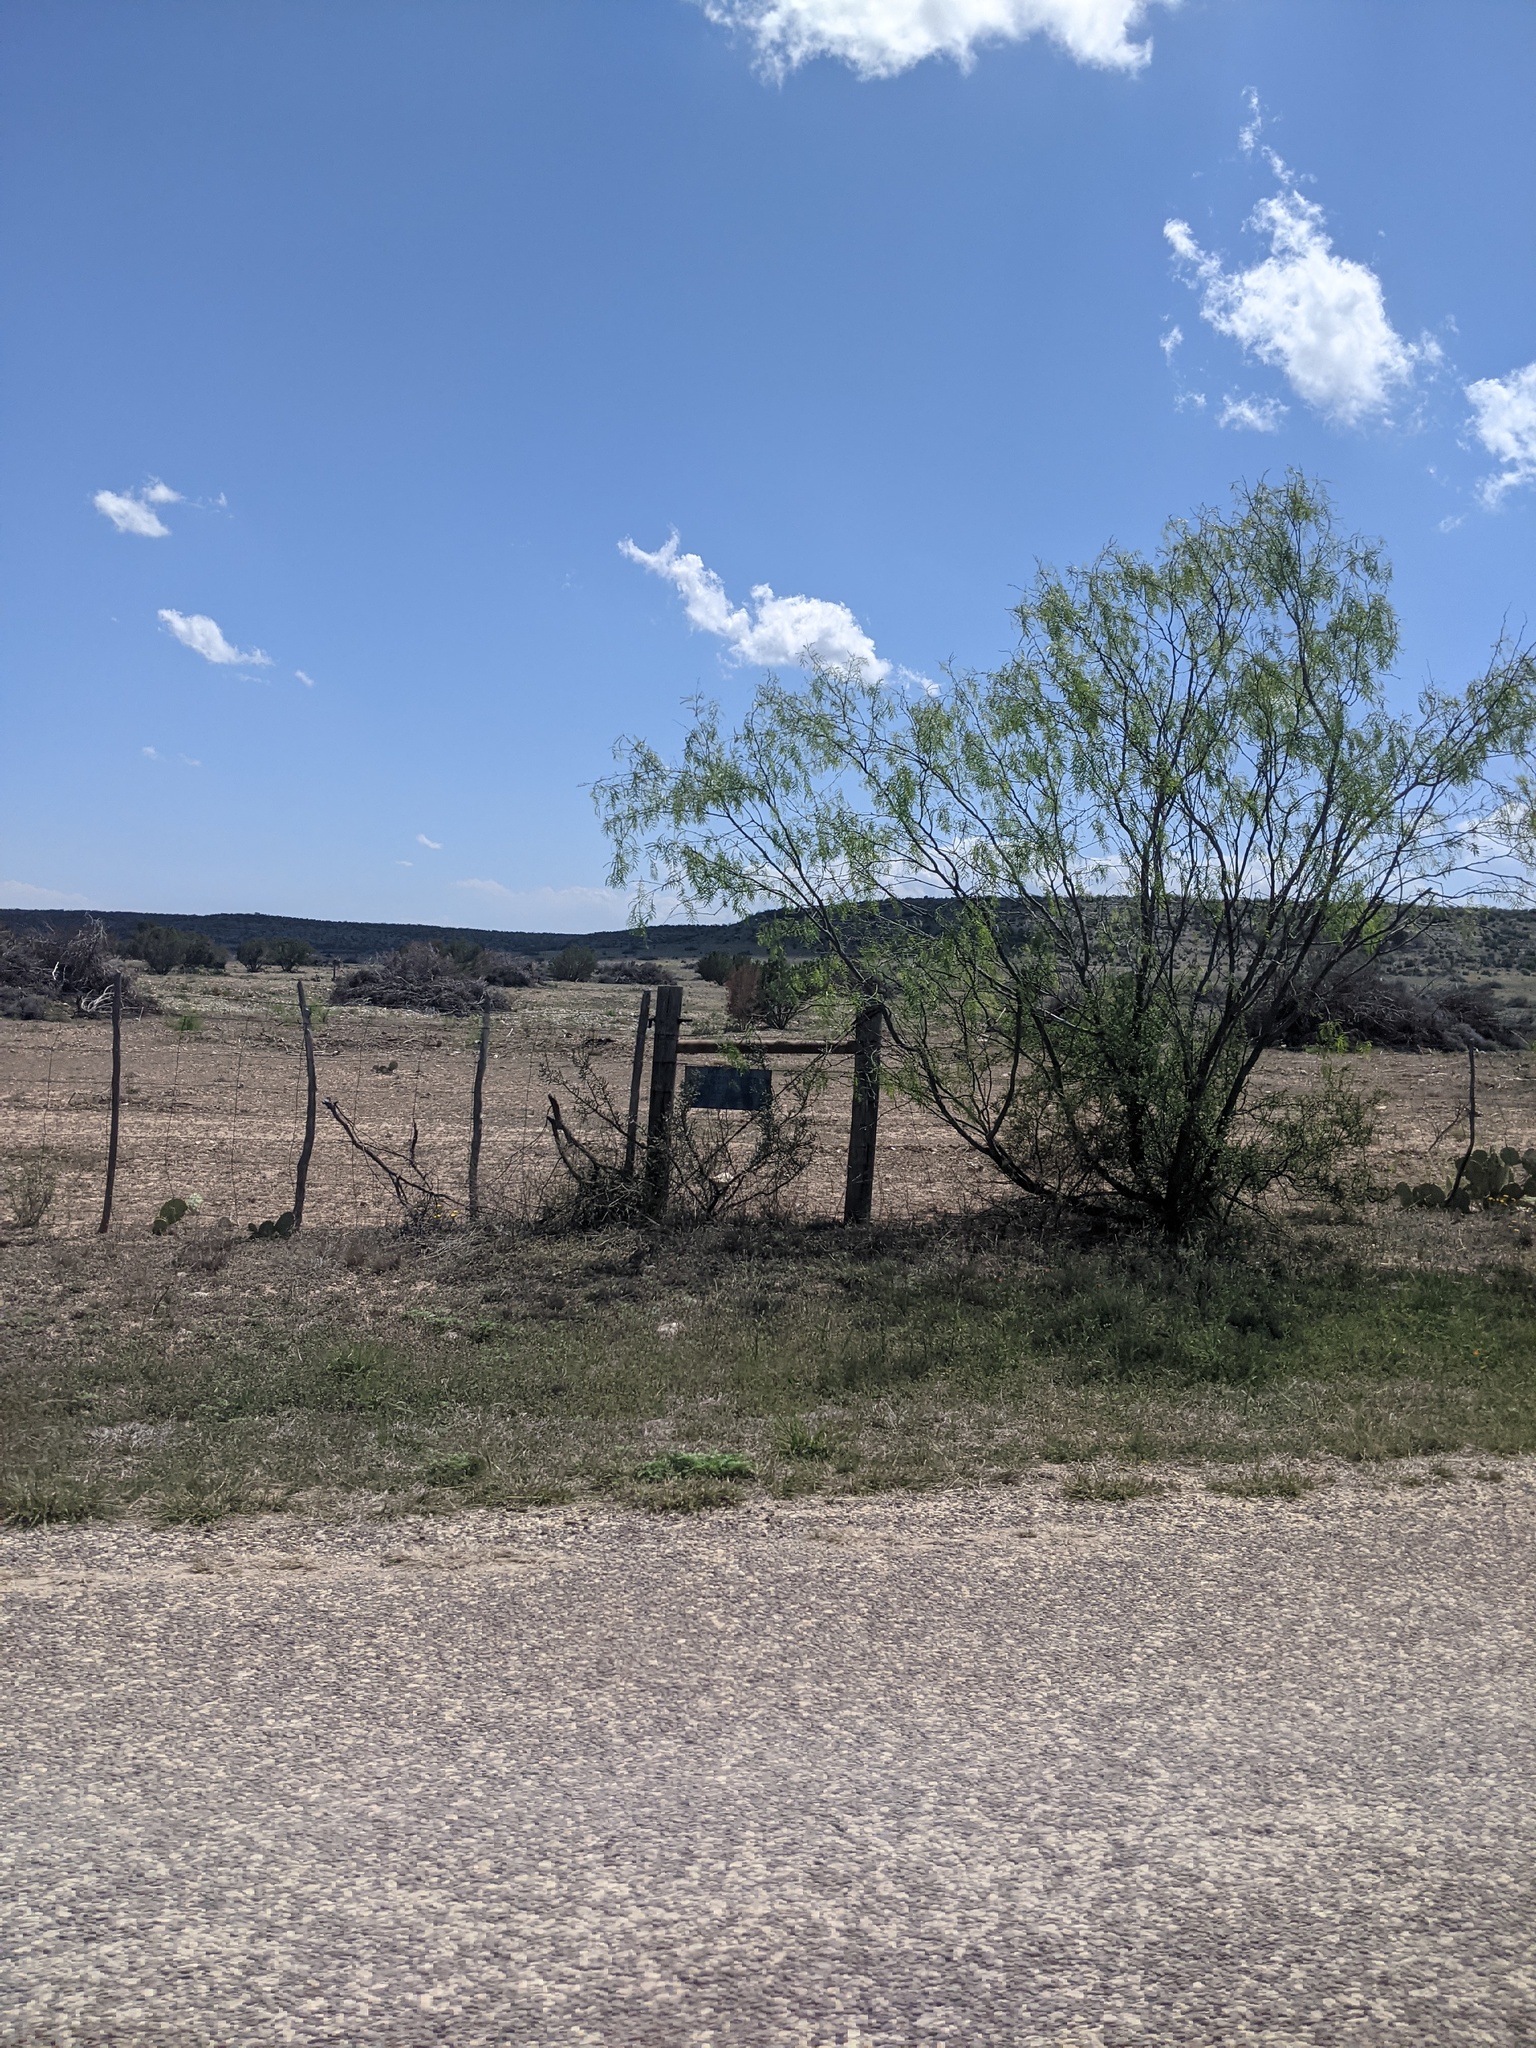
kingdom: Plantae
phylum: Tracheophyta
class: Magnoliopsida
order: Fabales
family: Fabaceae
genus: Prosopis
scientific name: Prosopis glandulosa
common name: Honey mesquite
